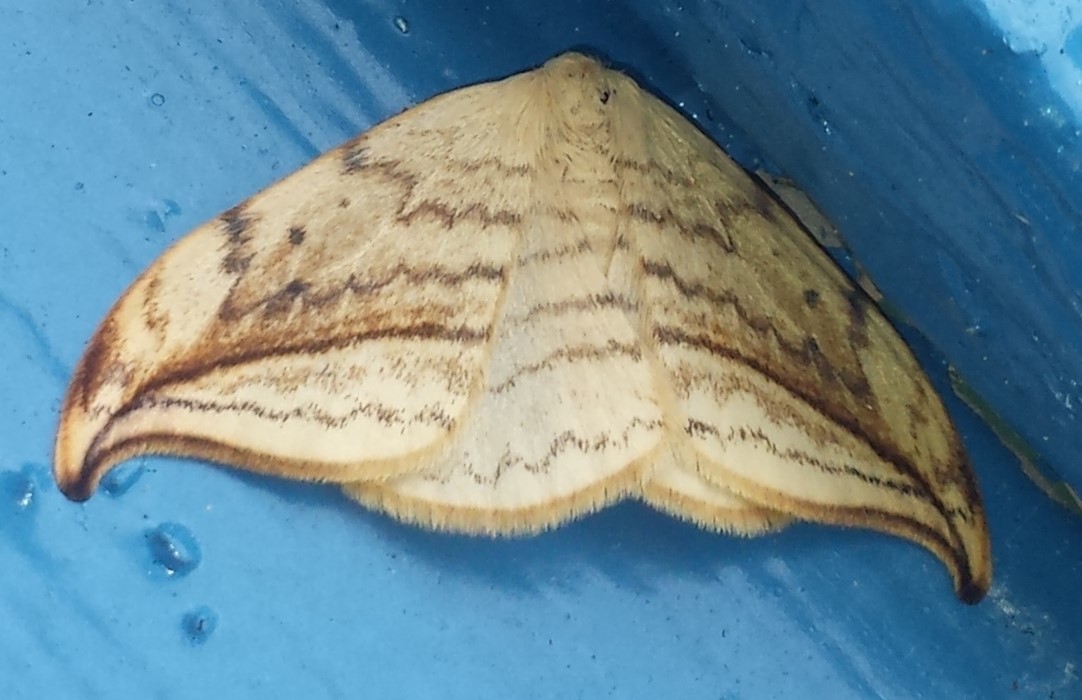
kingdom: Animalia
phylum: Arthropoda
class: Insecta
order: Lepidoptera
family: Drepanidae
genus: Drepana
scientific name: Drepana arcuata
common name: Arched hooktip moth
